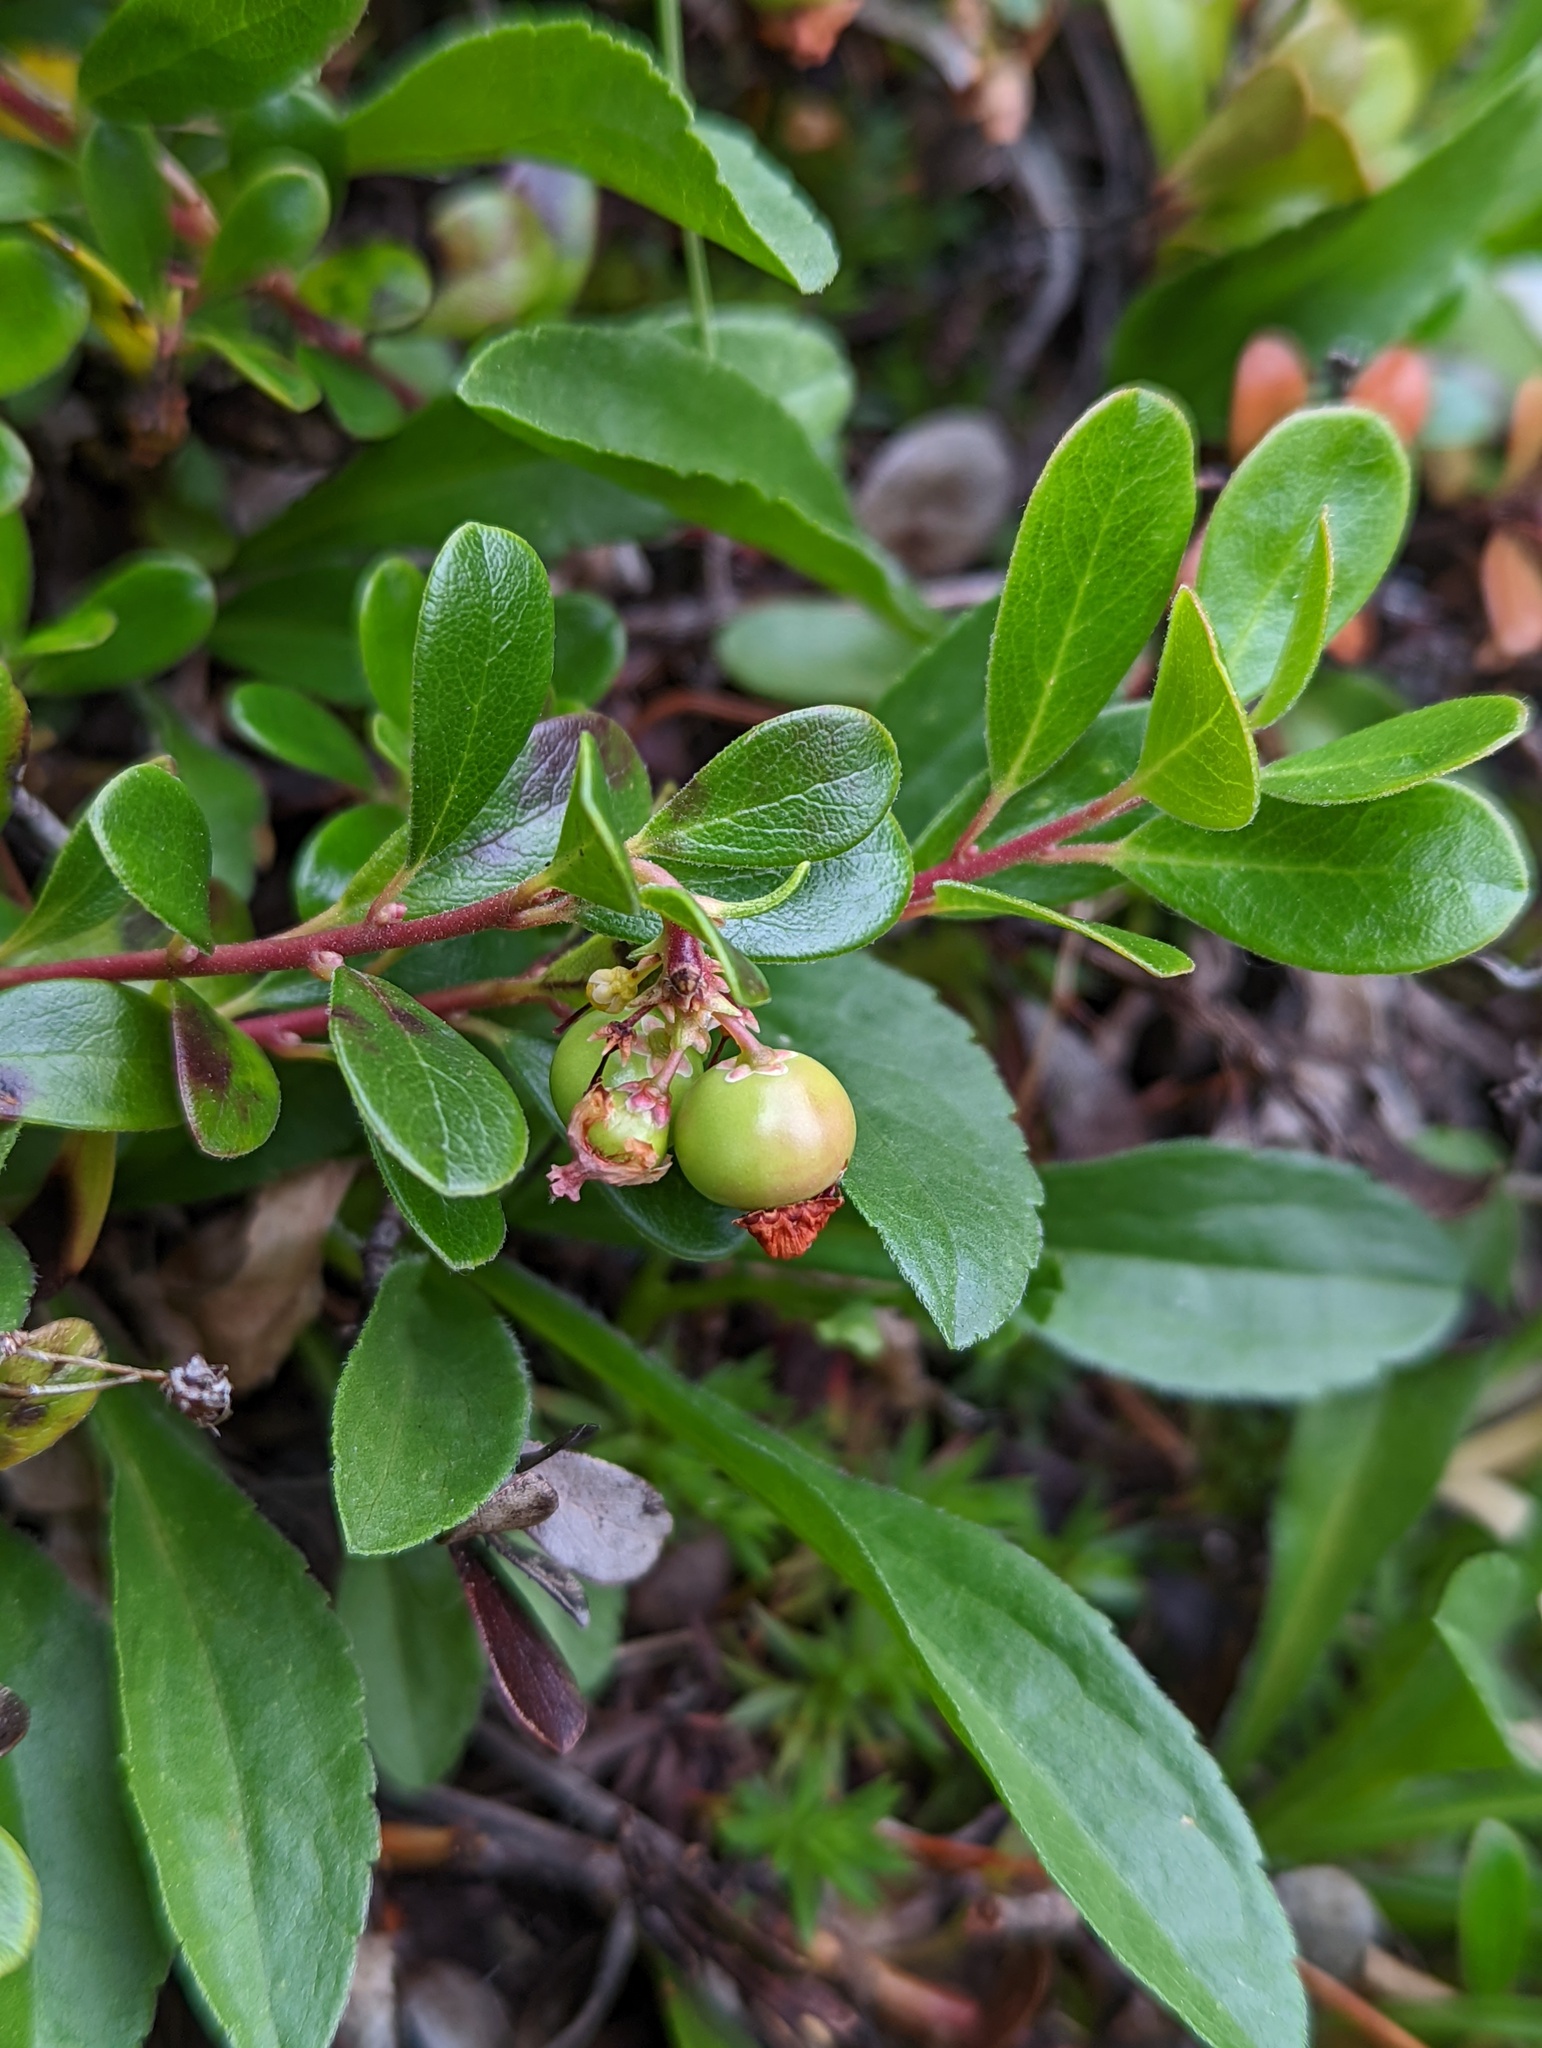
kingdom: Plantae
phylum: Tracheophyta
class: Magnoliopsida
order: Ericales
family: Ericaceae
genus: Arctostaphylos
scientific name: Arctostaphylos uva-ursi
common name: Bearberry
